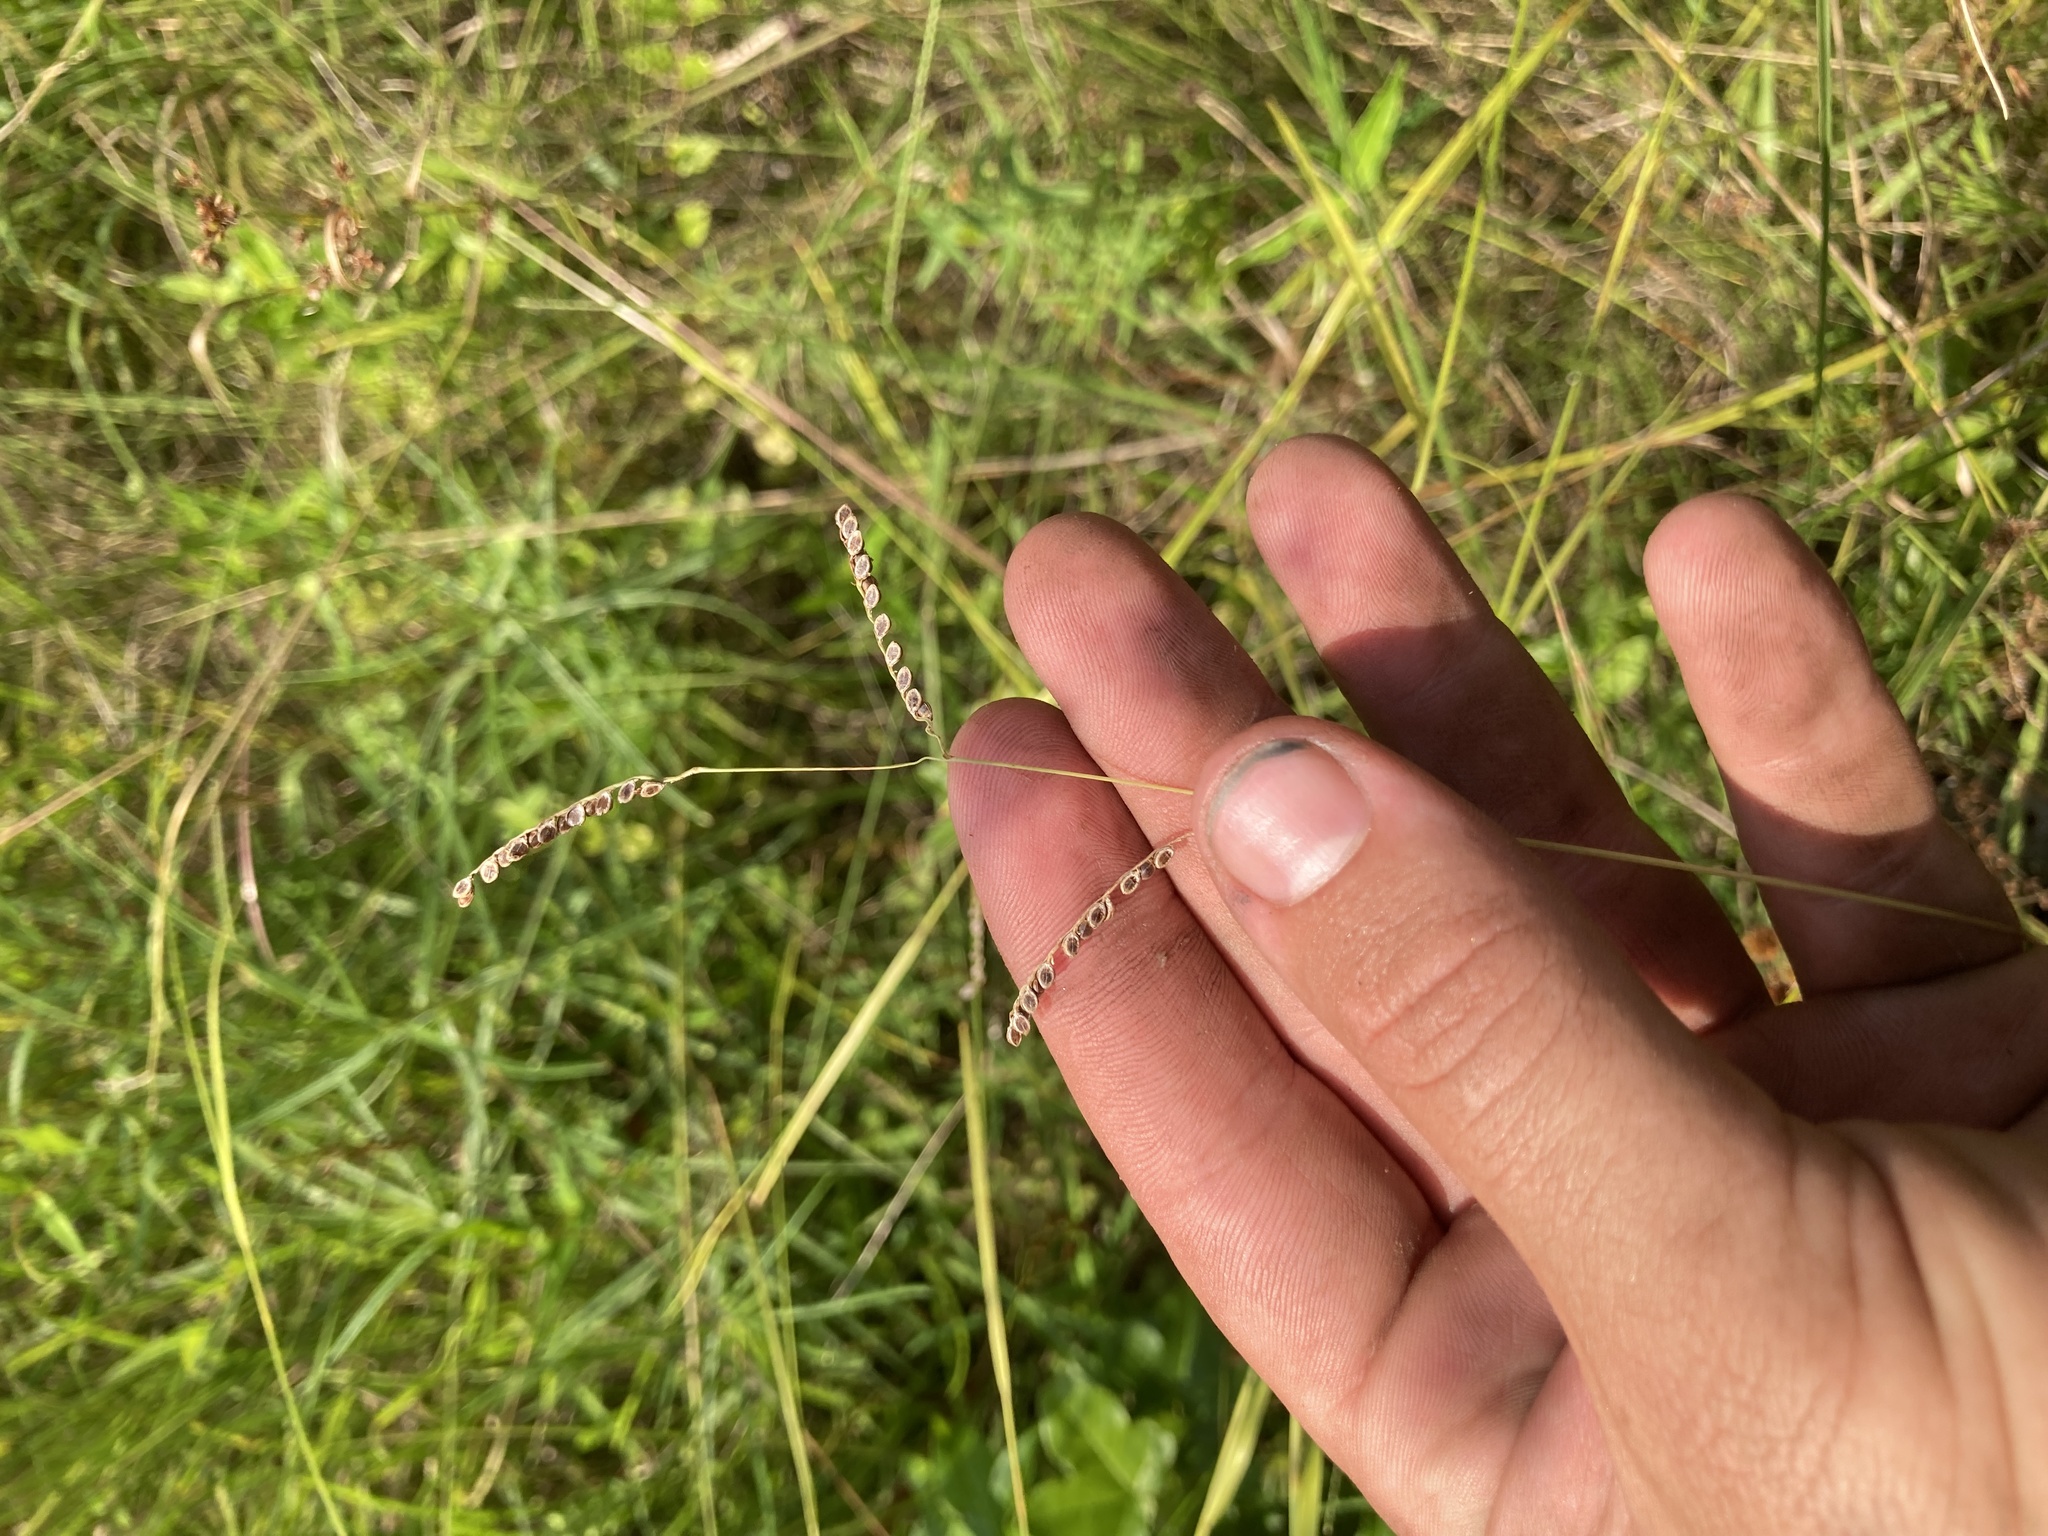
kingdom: Plantae
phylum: Tracheophyta
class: Liliopsida
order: Poales
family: Poaceae
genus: Paspalum
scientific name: Paspalum plicatulum
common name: Top paspalum
